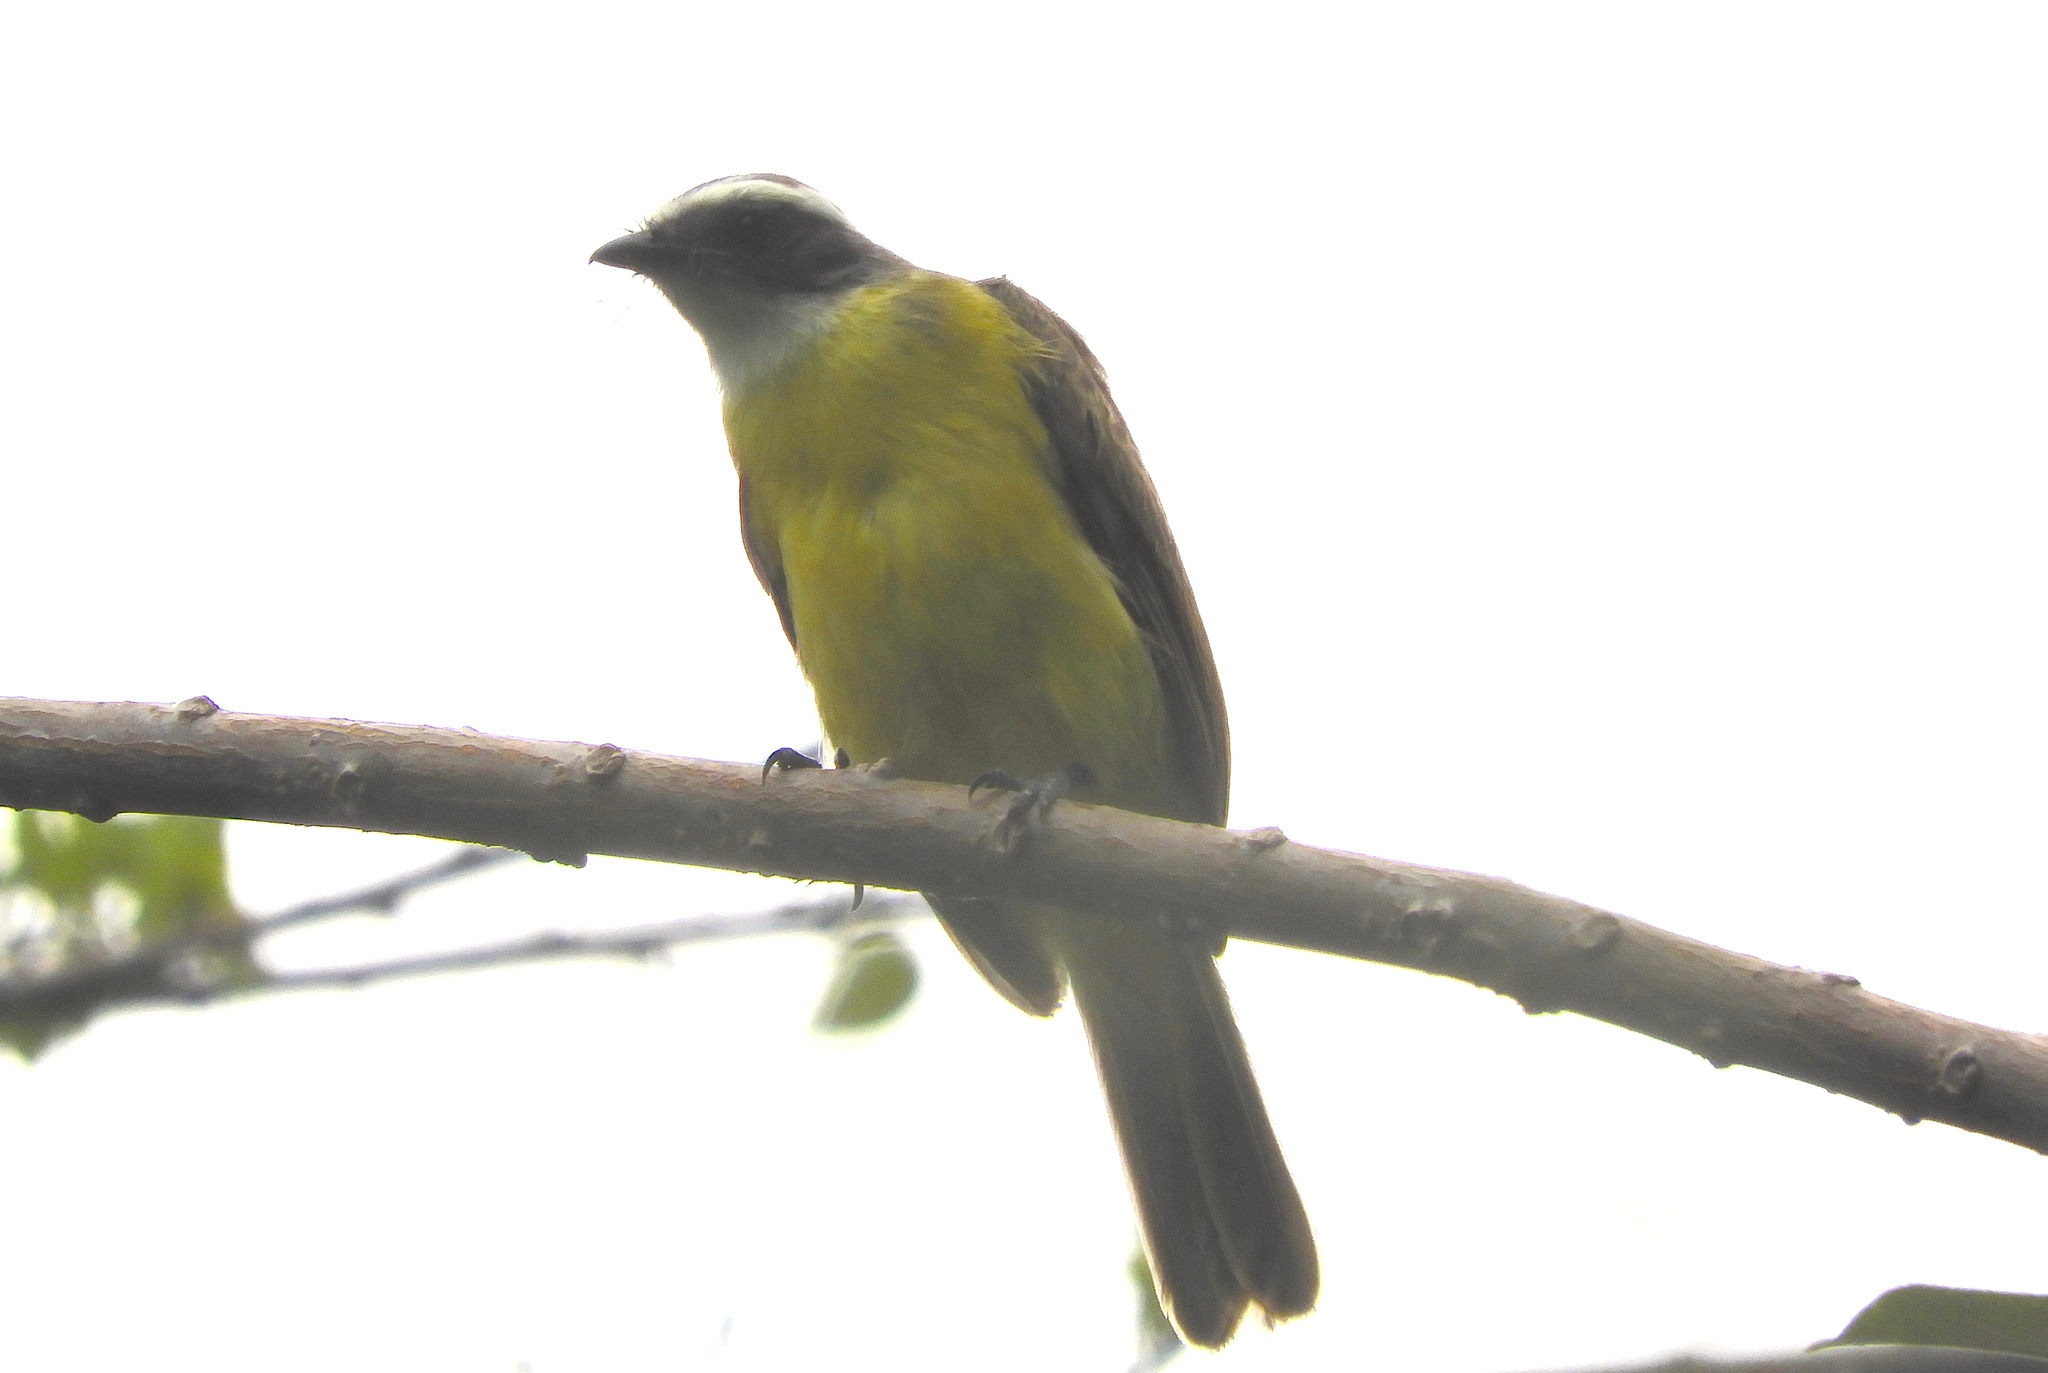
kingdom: Animalia
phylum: Chordata
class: Aves
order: Passeriformes
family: Tyrannidae
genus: Myiozetetes
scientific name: Myiozetetes similis
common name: Social flycatcher
